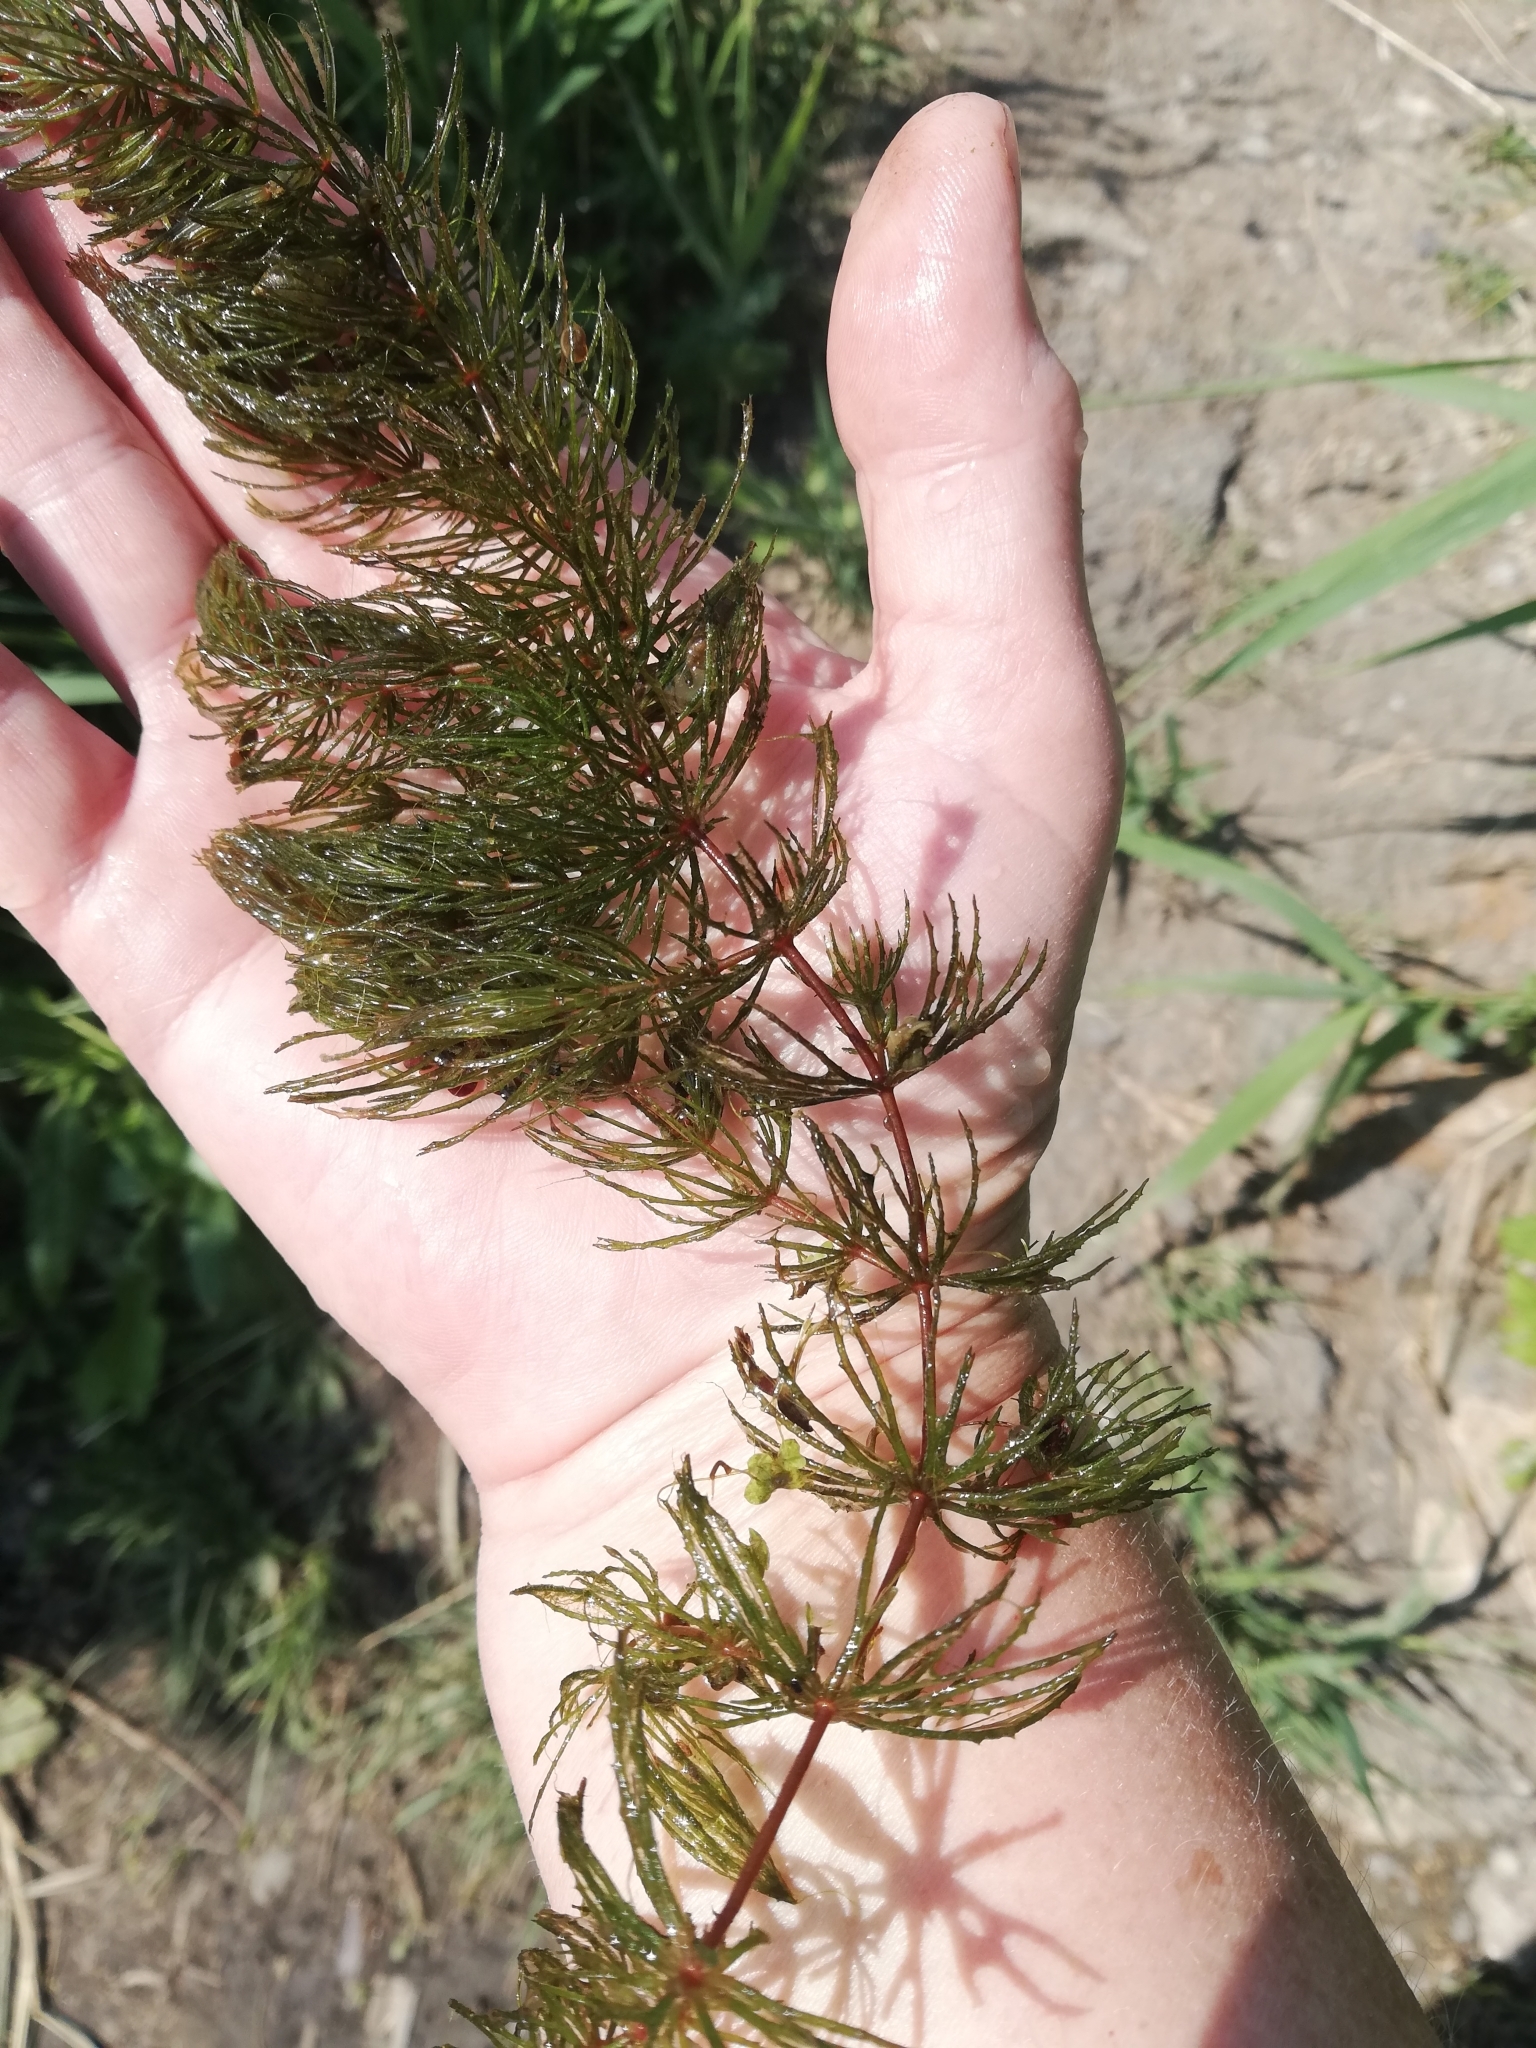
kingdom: Plantae
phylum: Tracheophyta
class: Magnoliopsida
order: Ceratophyllales
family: Ceratophyllaceae
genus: Ceratophyllum
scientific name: Ceratophyllum demersum
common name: Rigid hornwort
